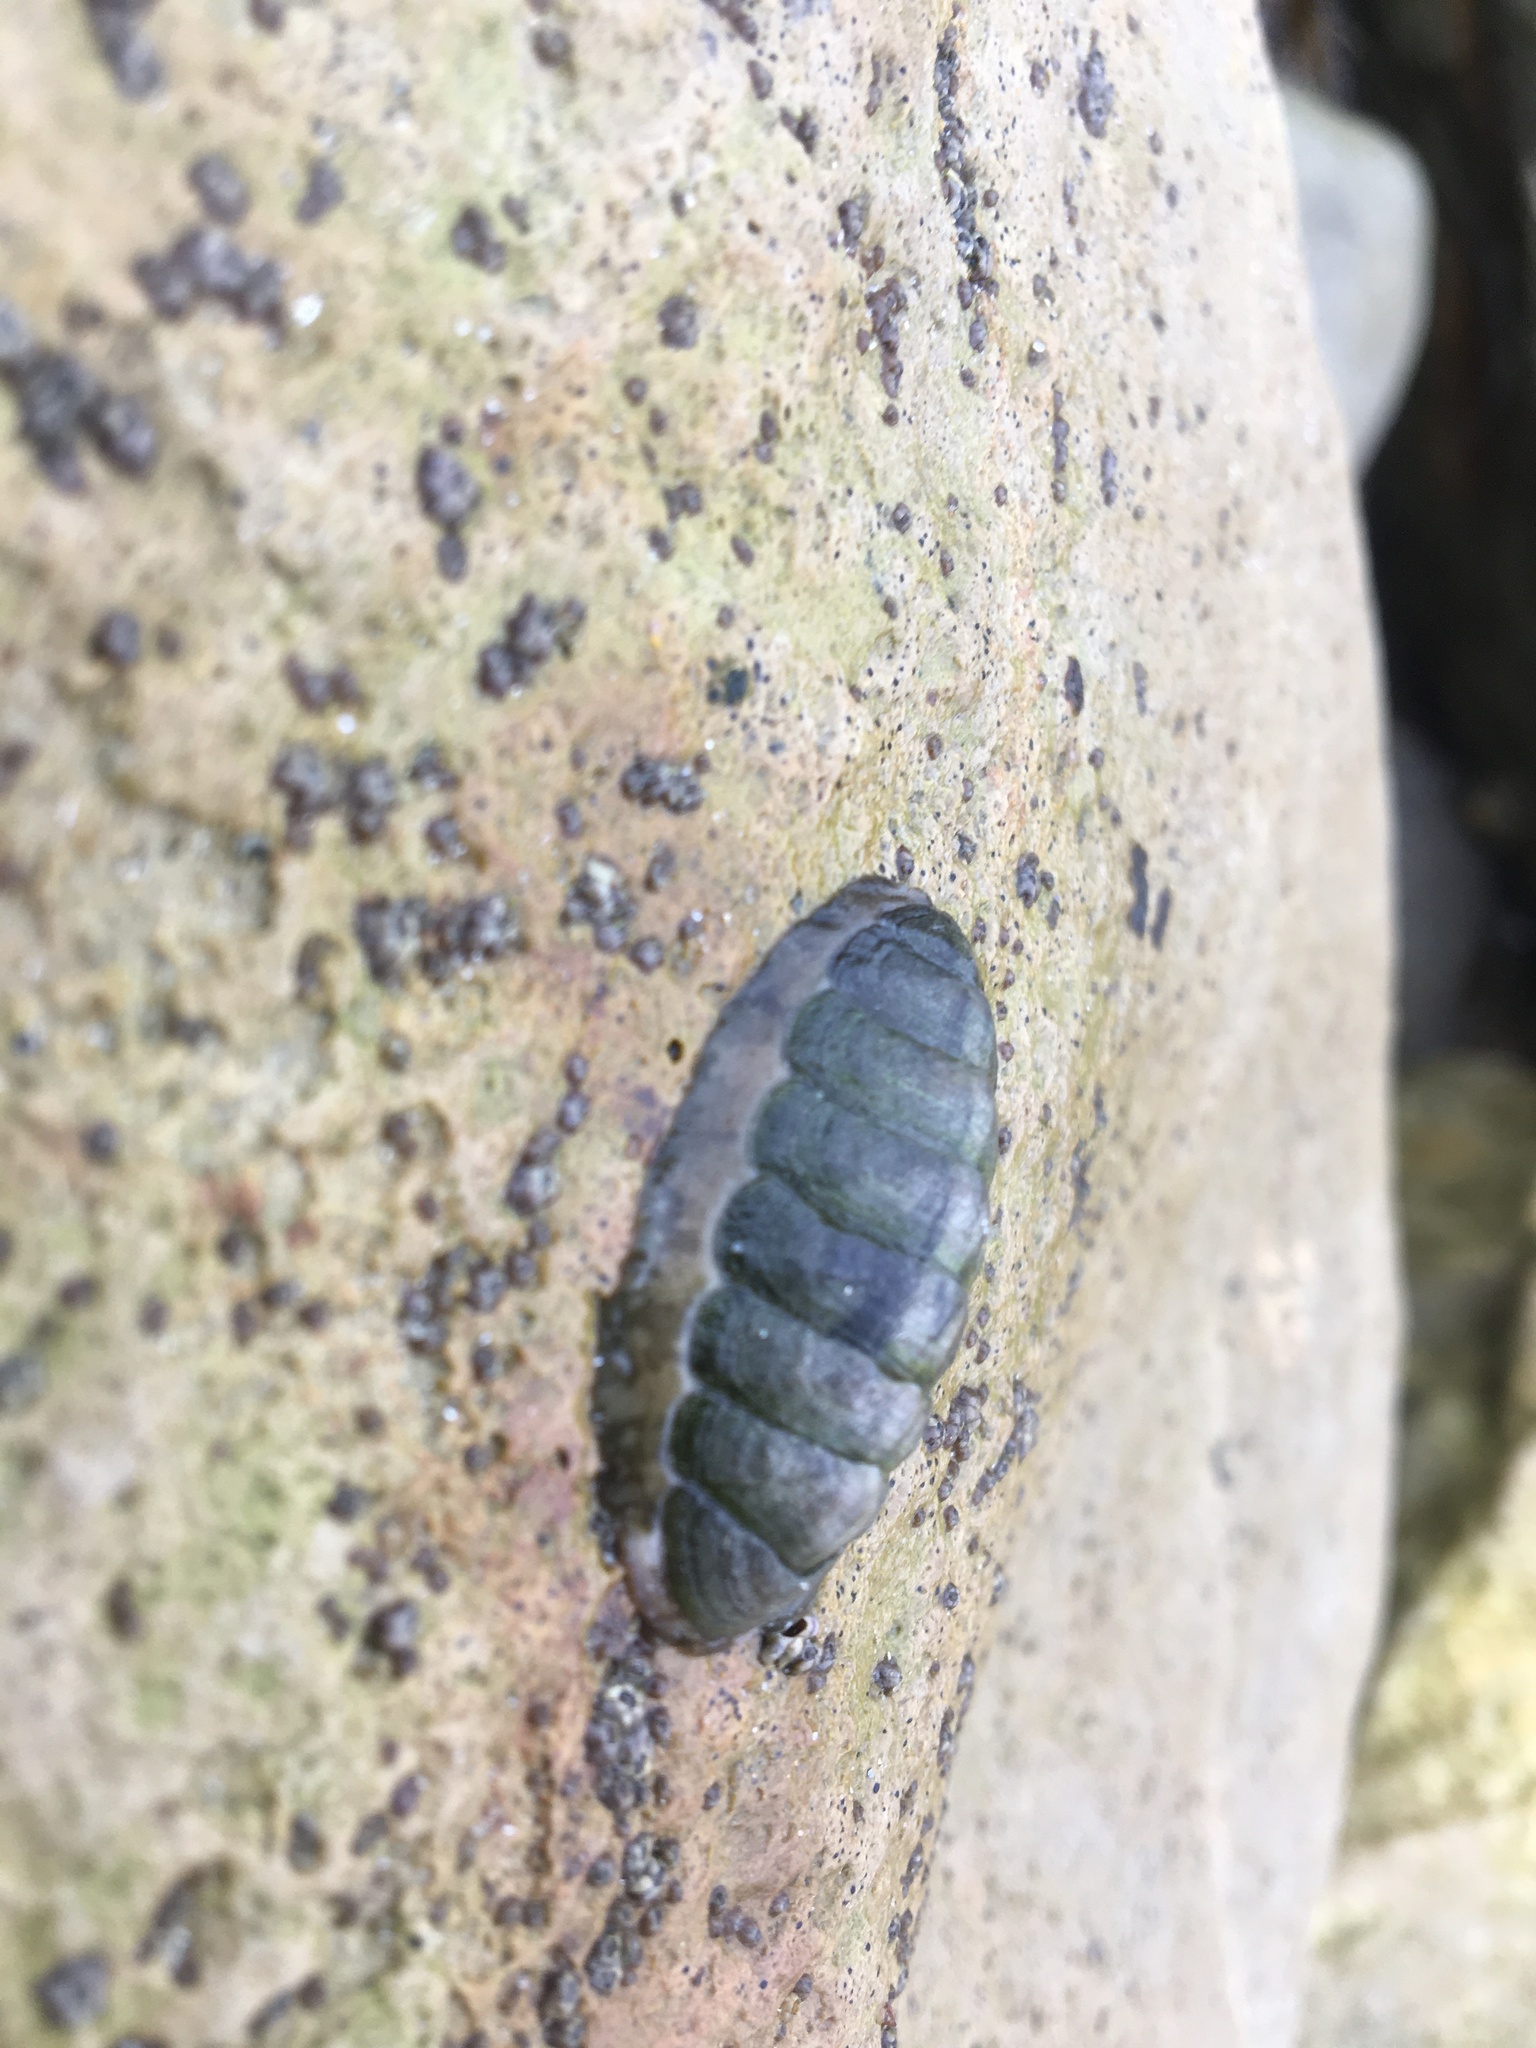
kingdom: Animalia
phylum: Mollusca
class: Polyplacophora
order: Chitonida
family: Tonicellidae
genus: Cyanoplax
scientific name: Cyanoplax hartwegii
